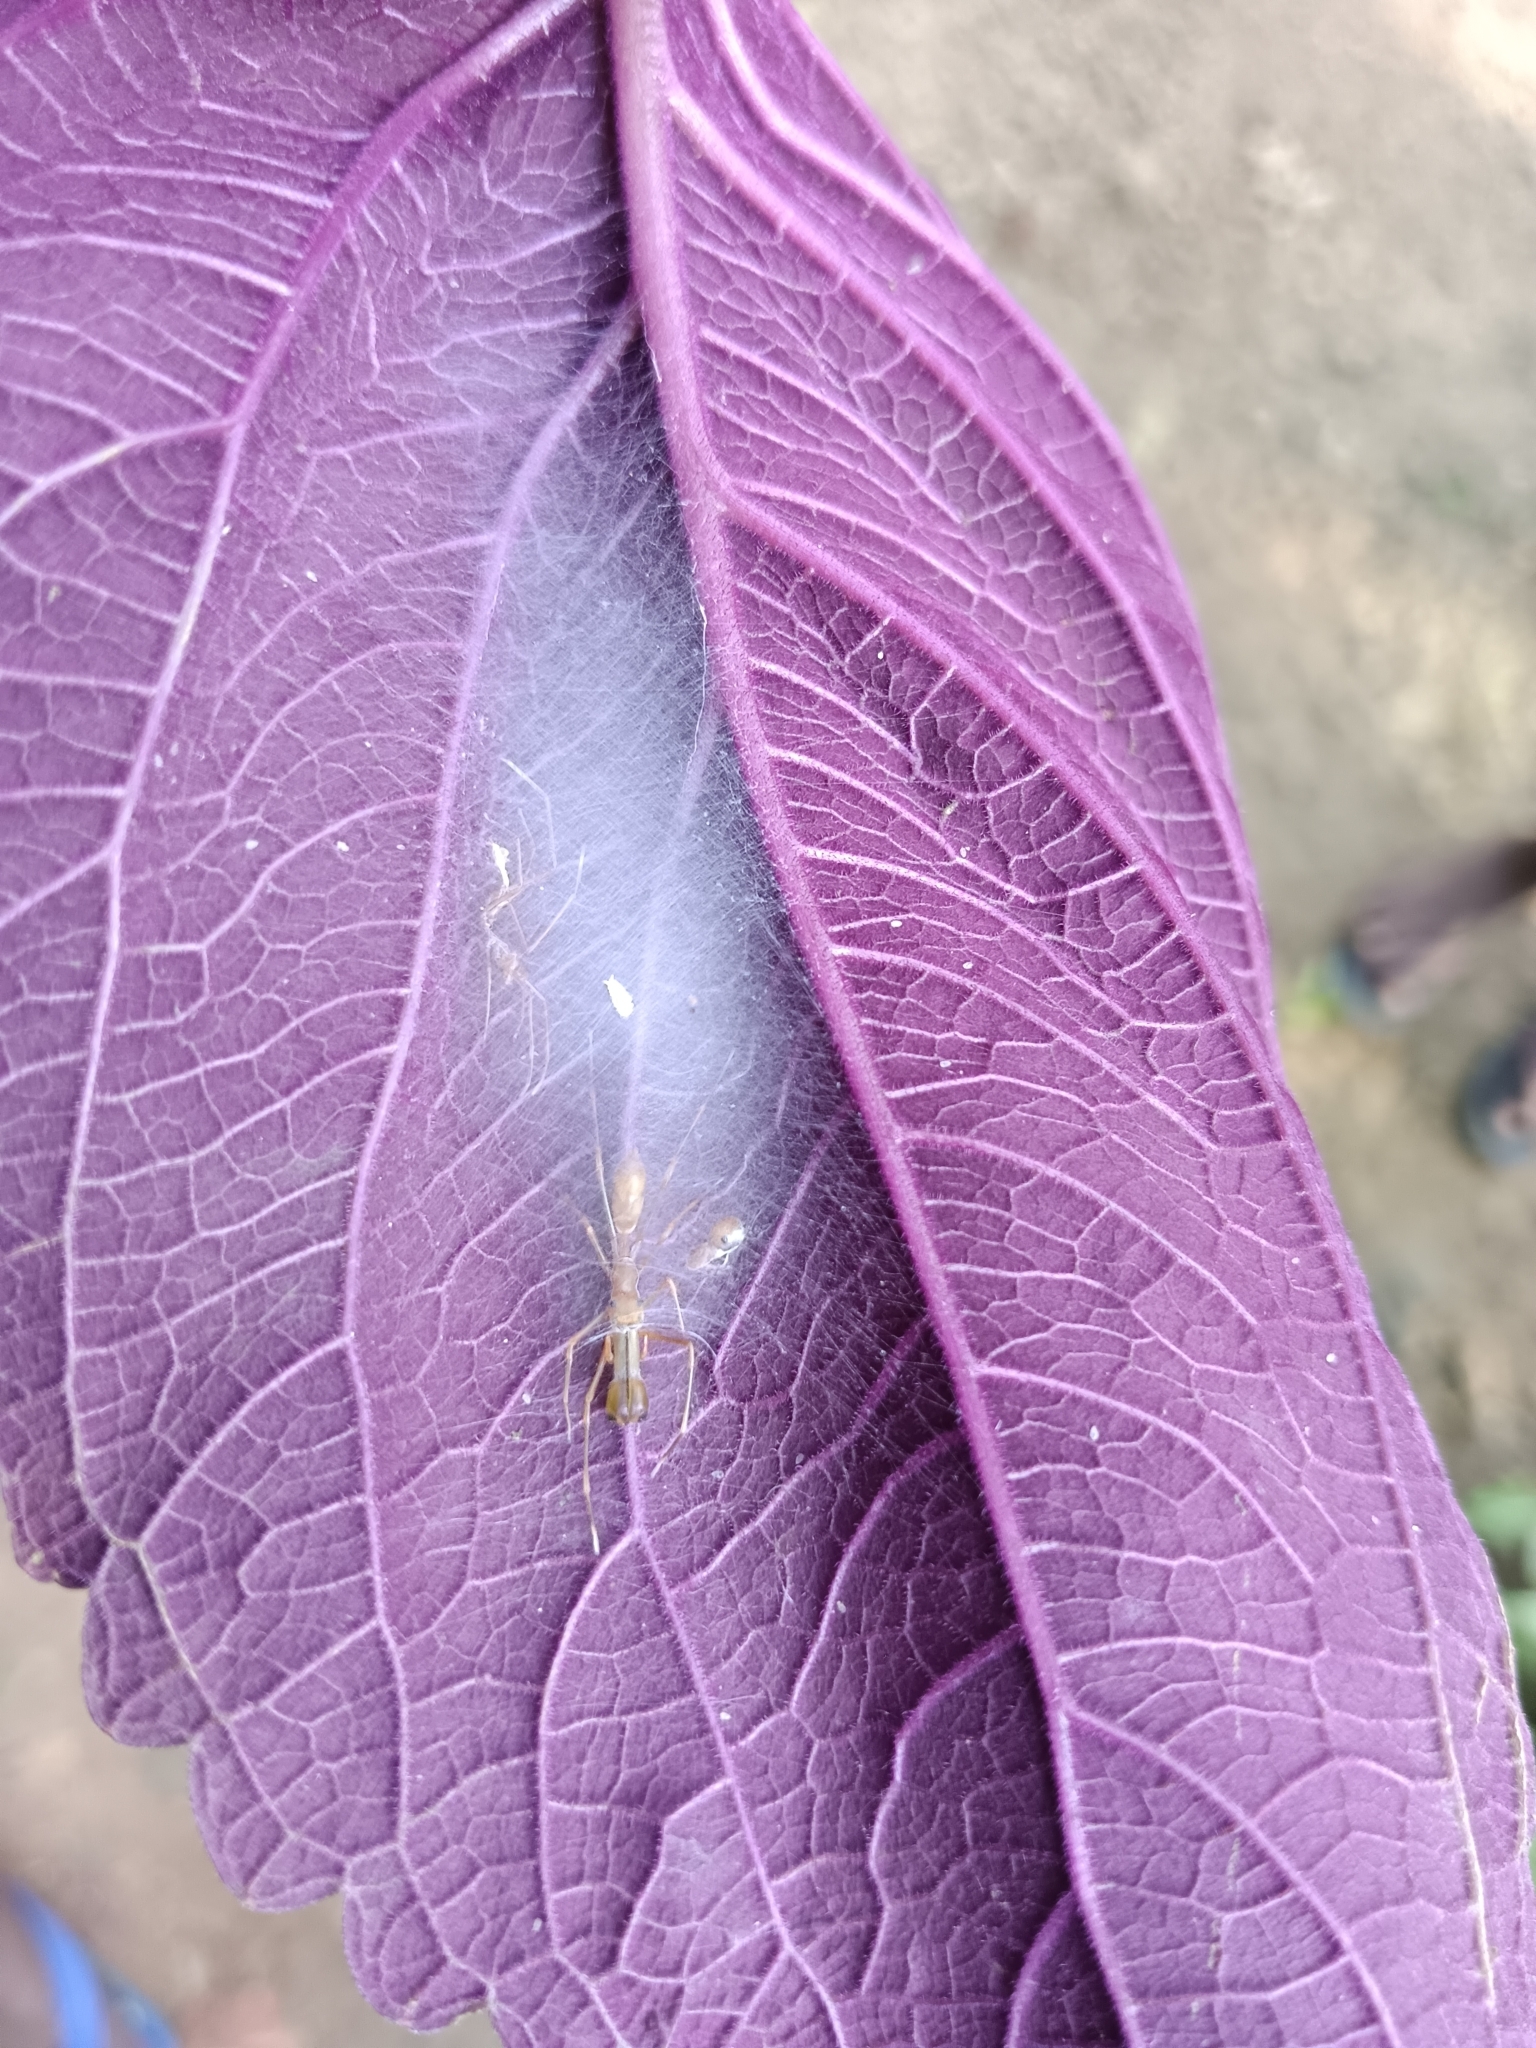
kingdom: Animalia
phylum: Arthropoda
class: Arachnida
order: Araneae
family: Salticidae
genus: Myrmaplata
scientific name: Myrmaplata plataleoides
